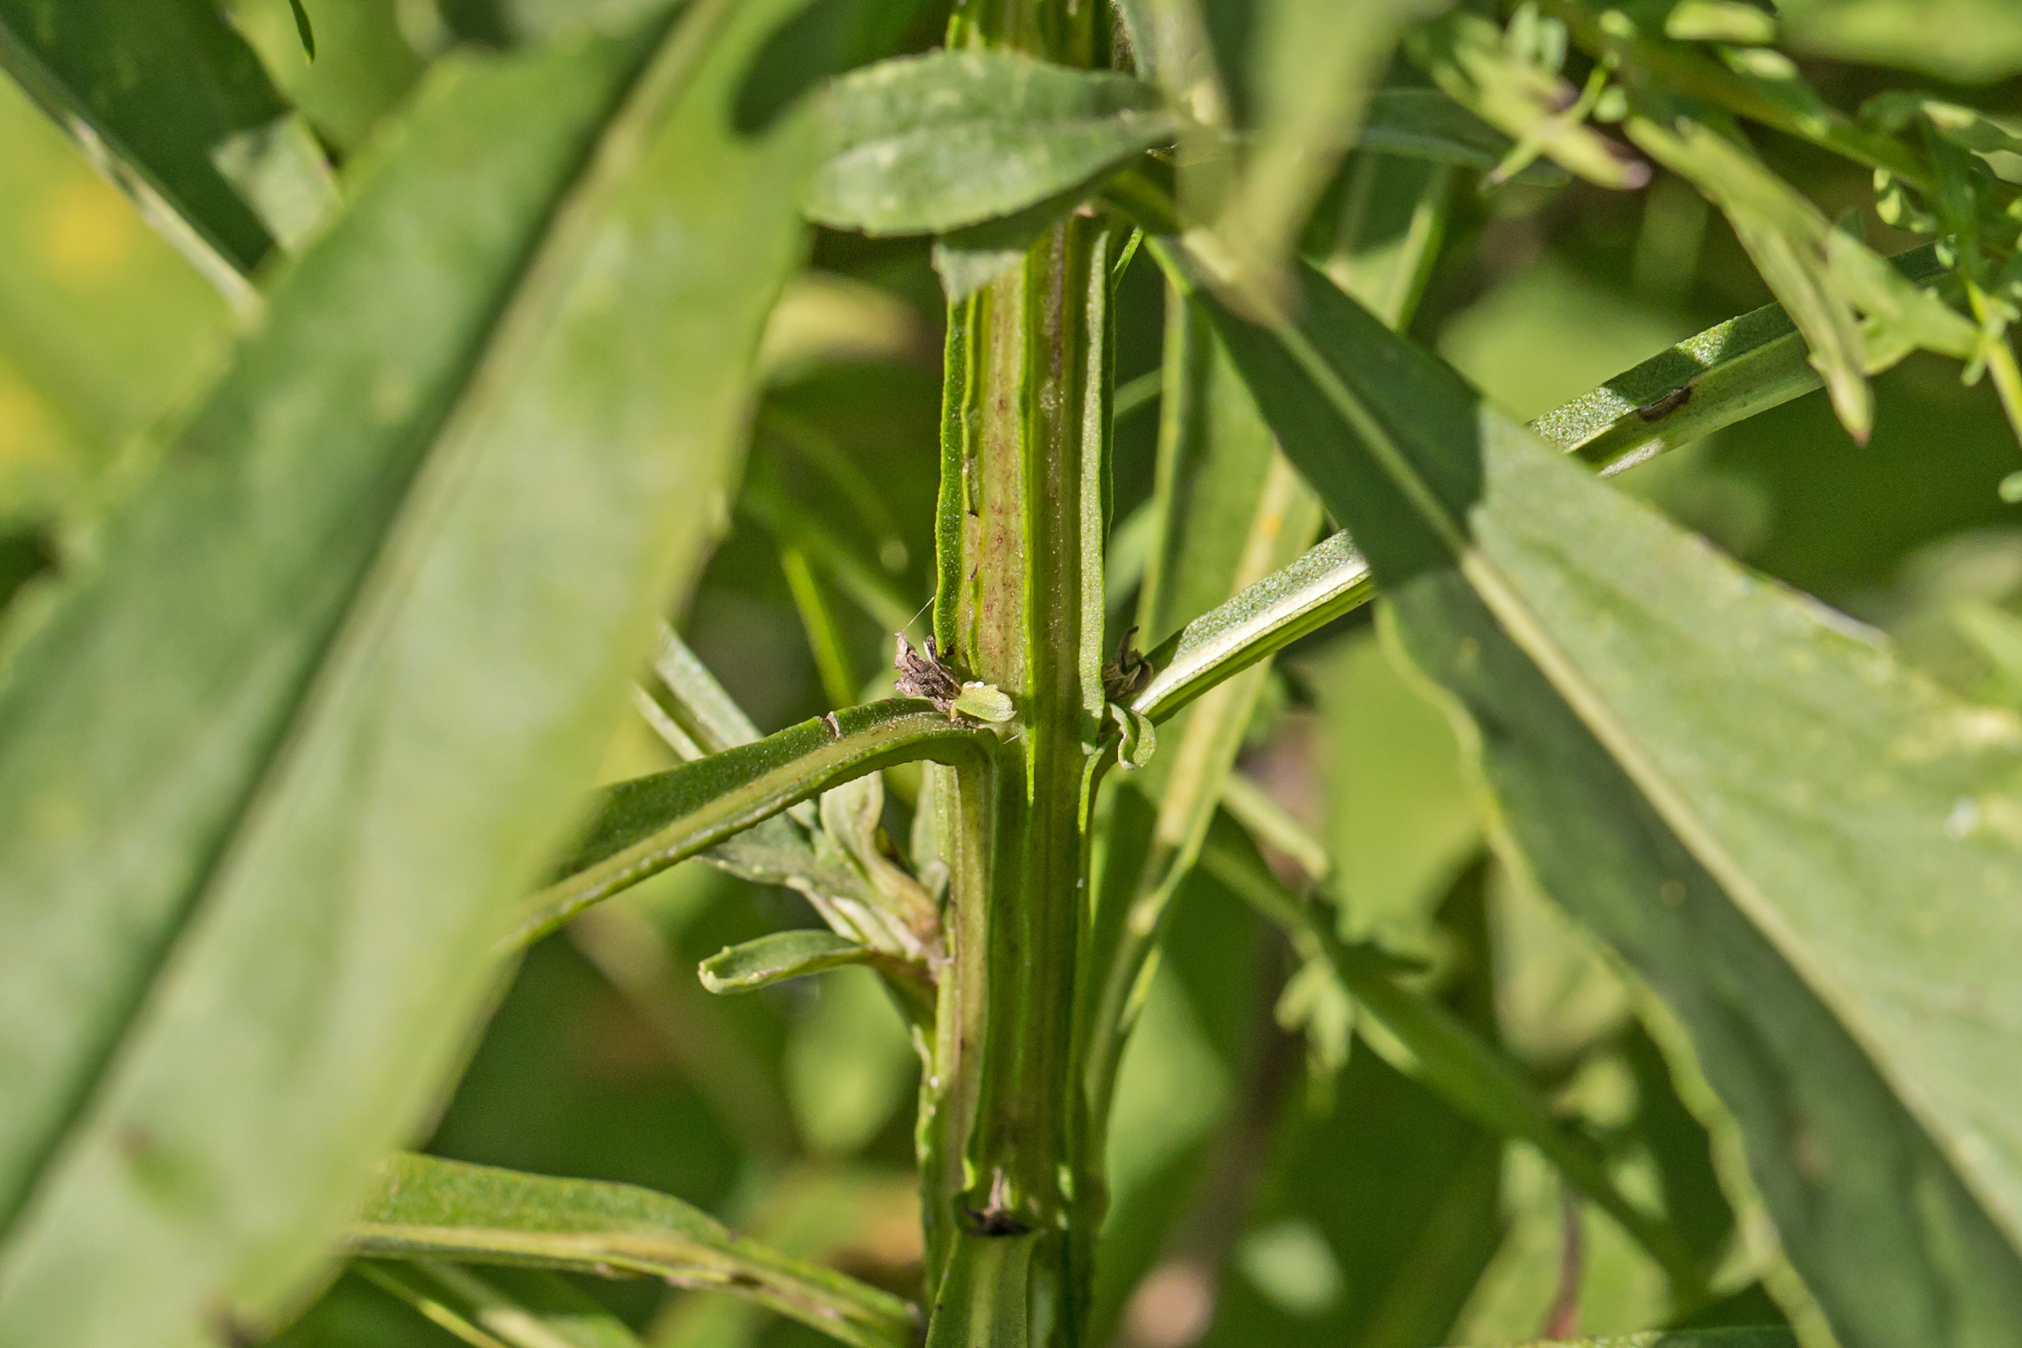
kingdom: Plantae
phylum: Tracheophyta
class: Magnoliopsida
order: Asterales
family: Asteraceae
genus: Helenium
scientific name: Helenium autumnale
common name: Sneezeweed
